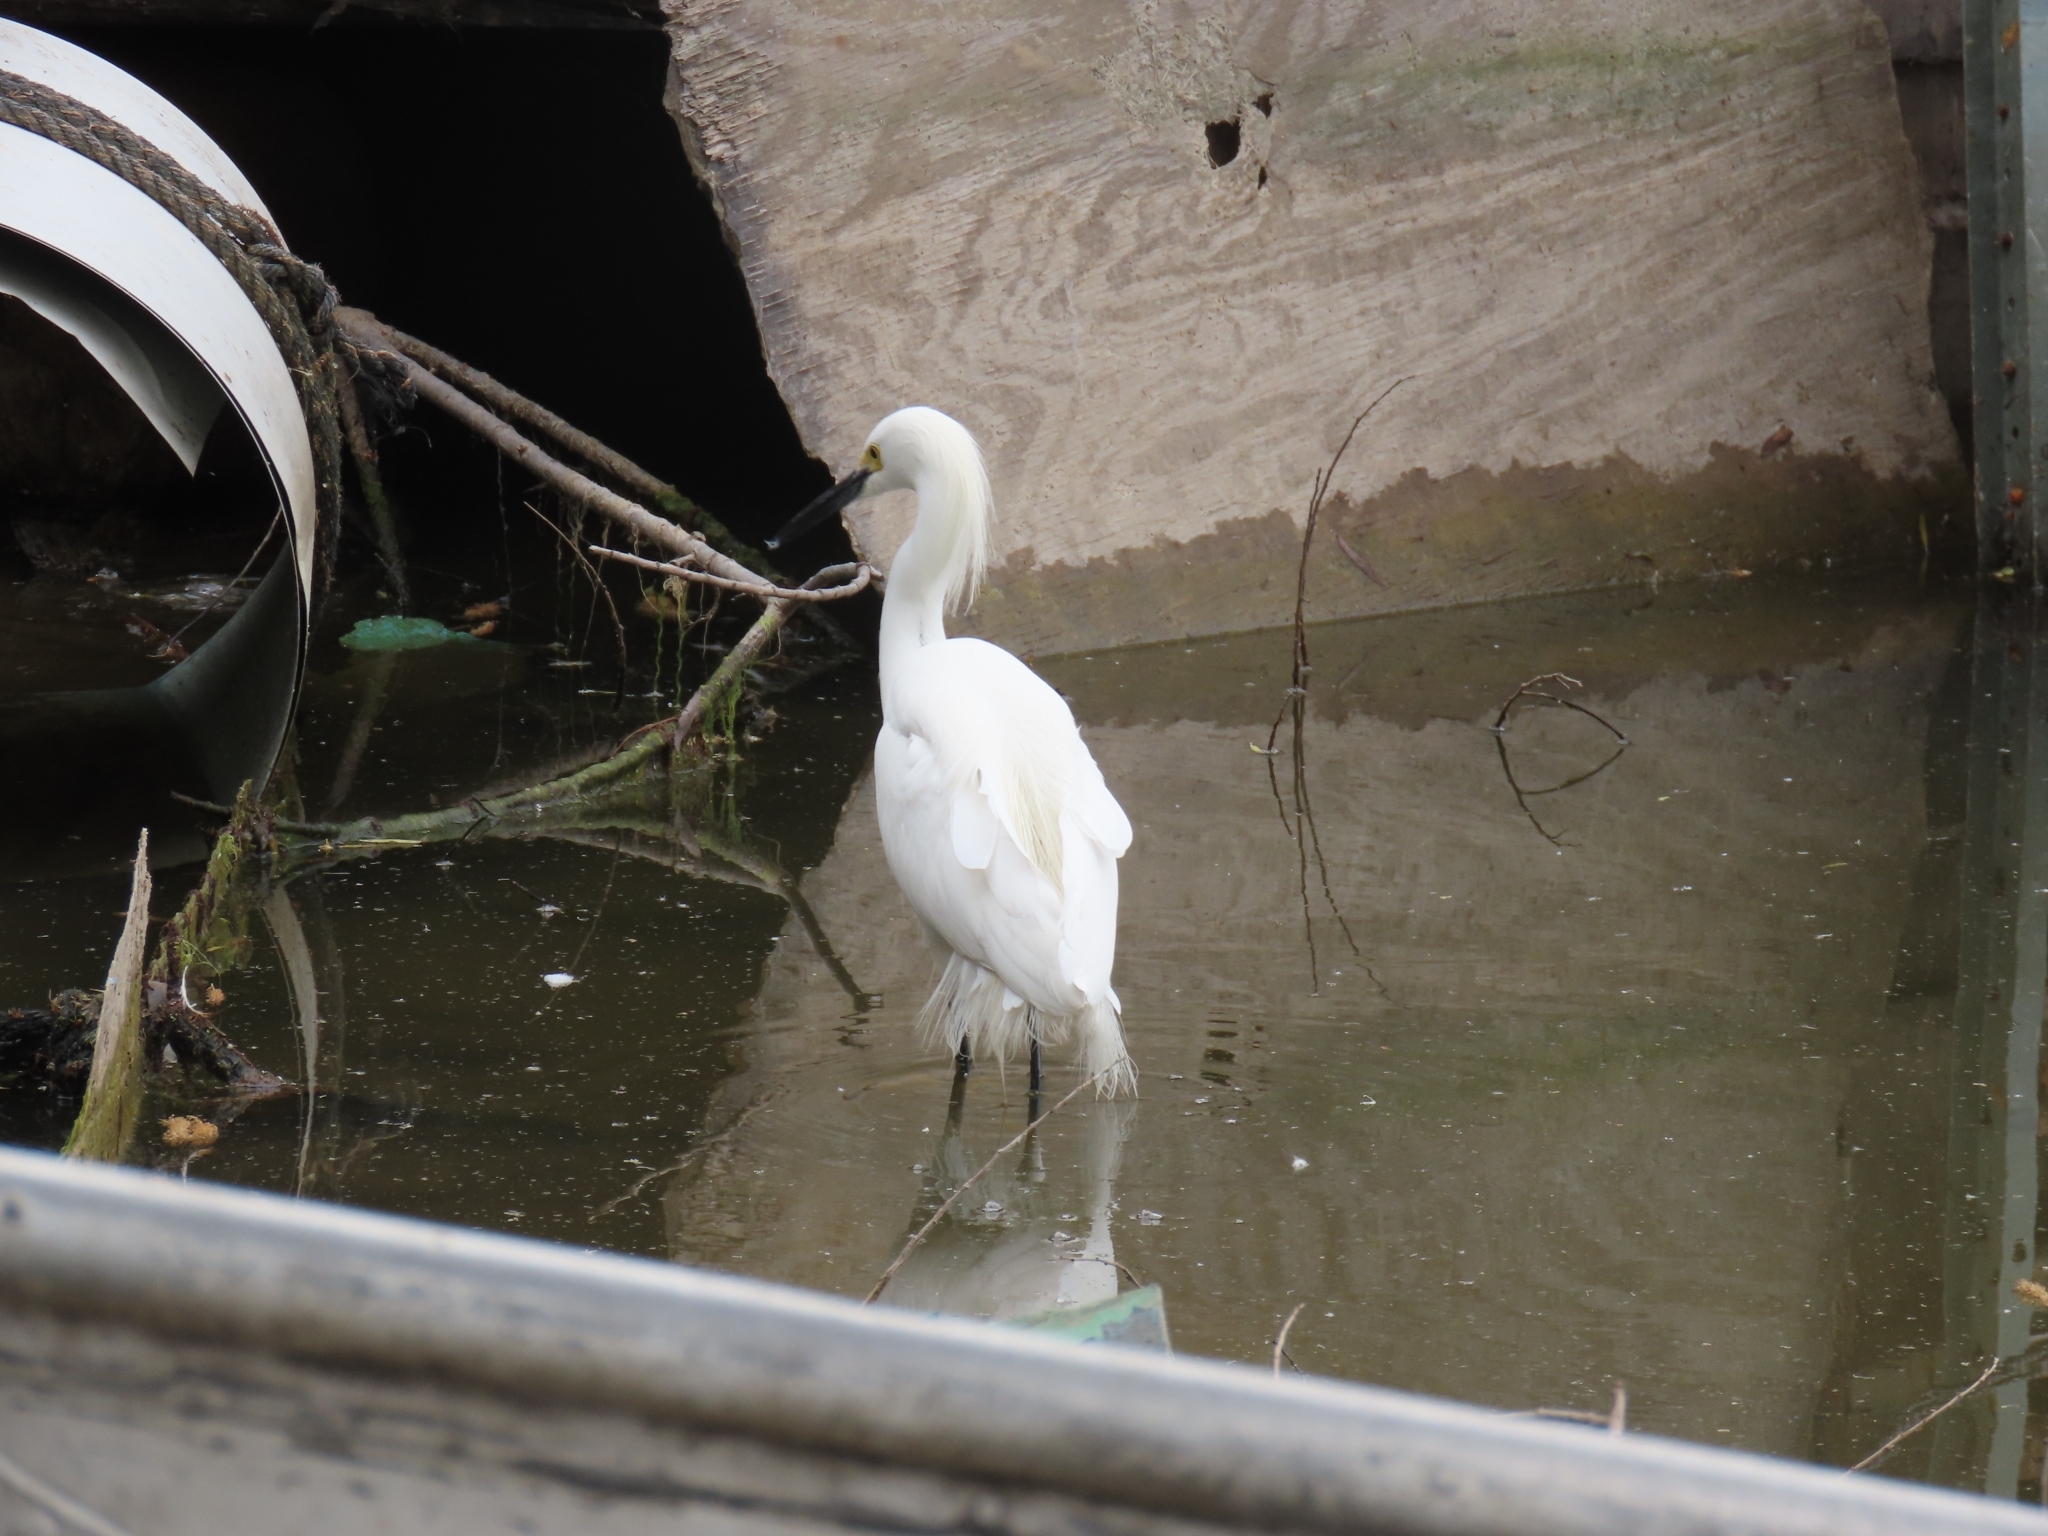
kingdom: Animalia
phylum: Chordata
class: Aves
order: Pelecaniformes
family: Ardeidae
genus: Egretta
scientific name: Egretta thula
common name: Snowy egret
